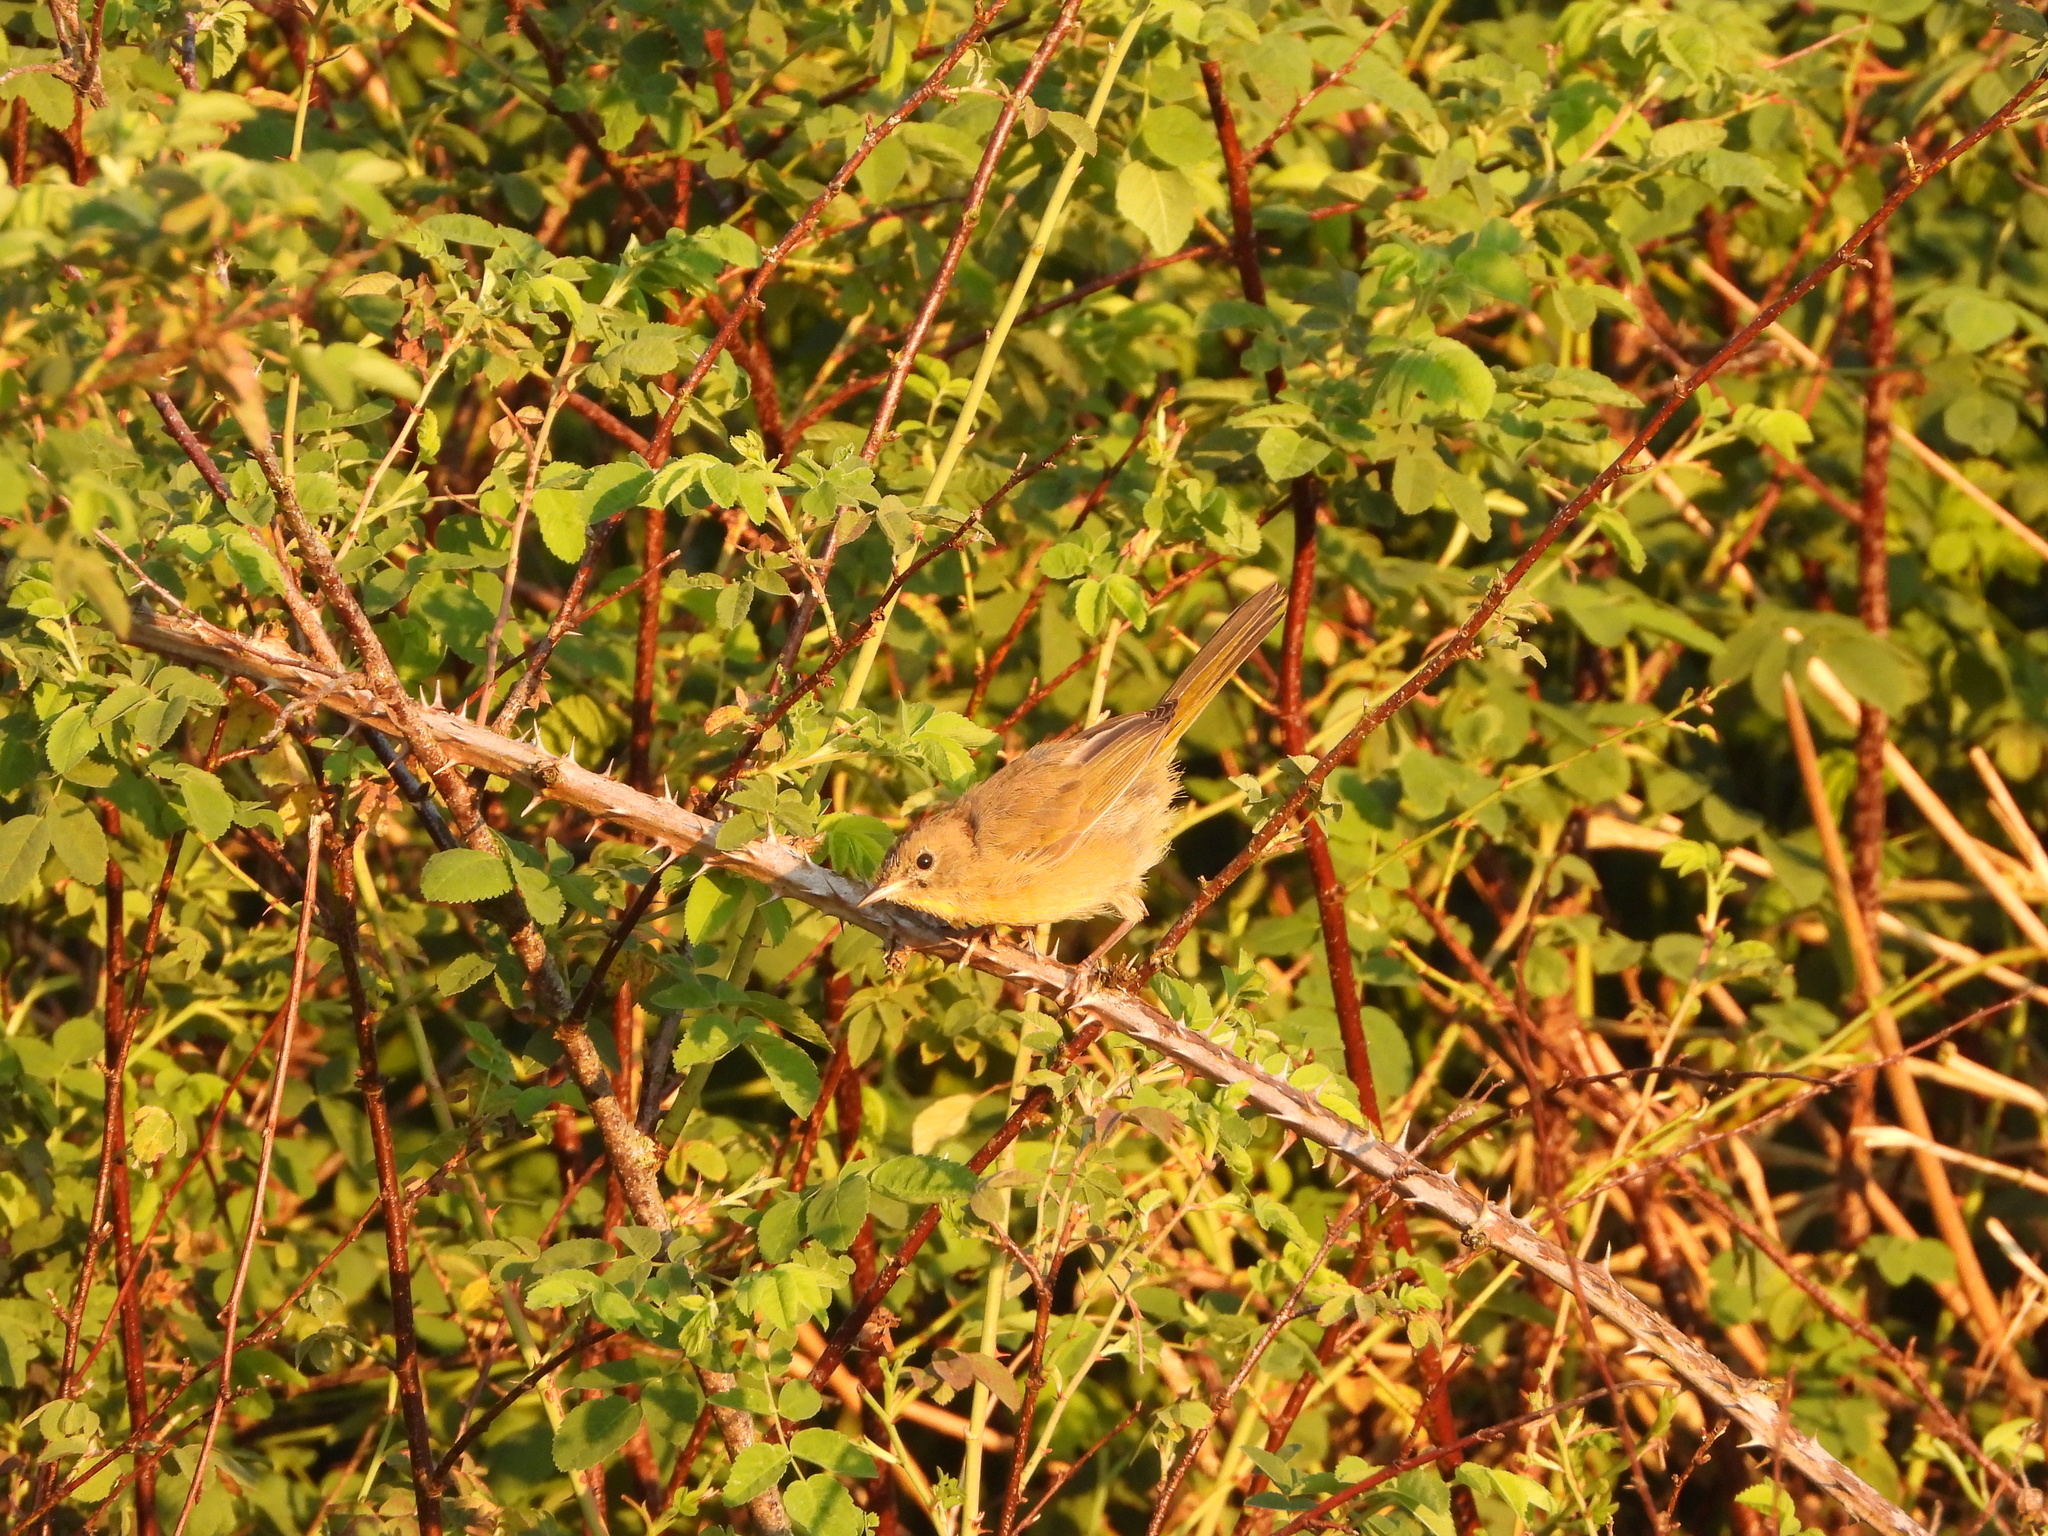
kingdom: Animalia
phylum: Chordata
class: Aves
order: Passeriformes
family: Parulidae
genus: Geothlypis
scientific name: Geothlypis trichas
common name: Common yellowthroat
